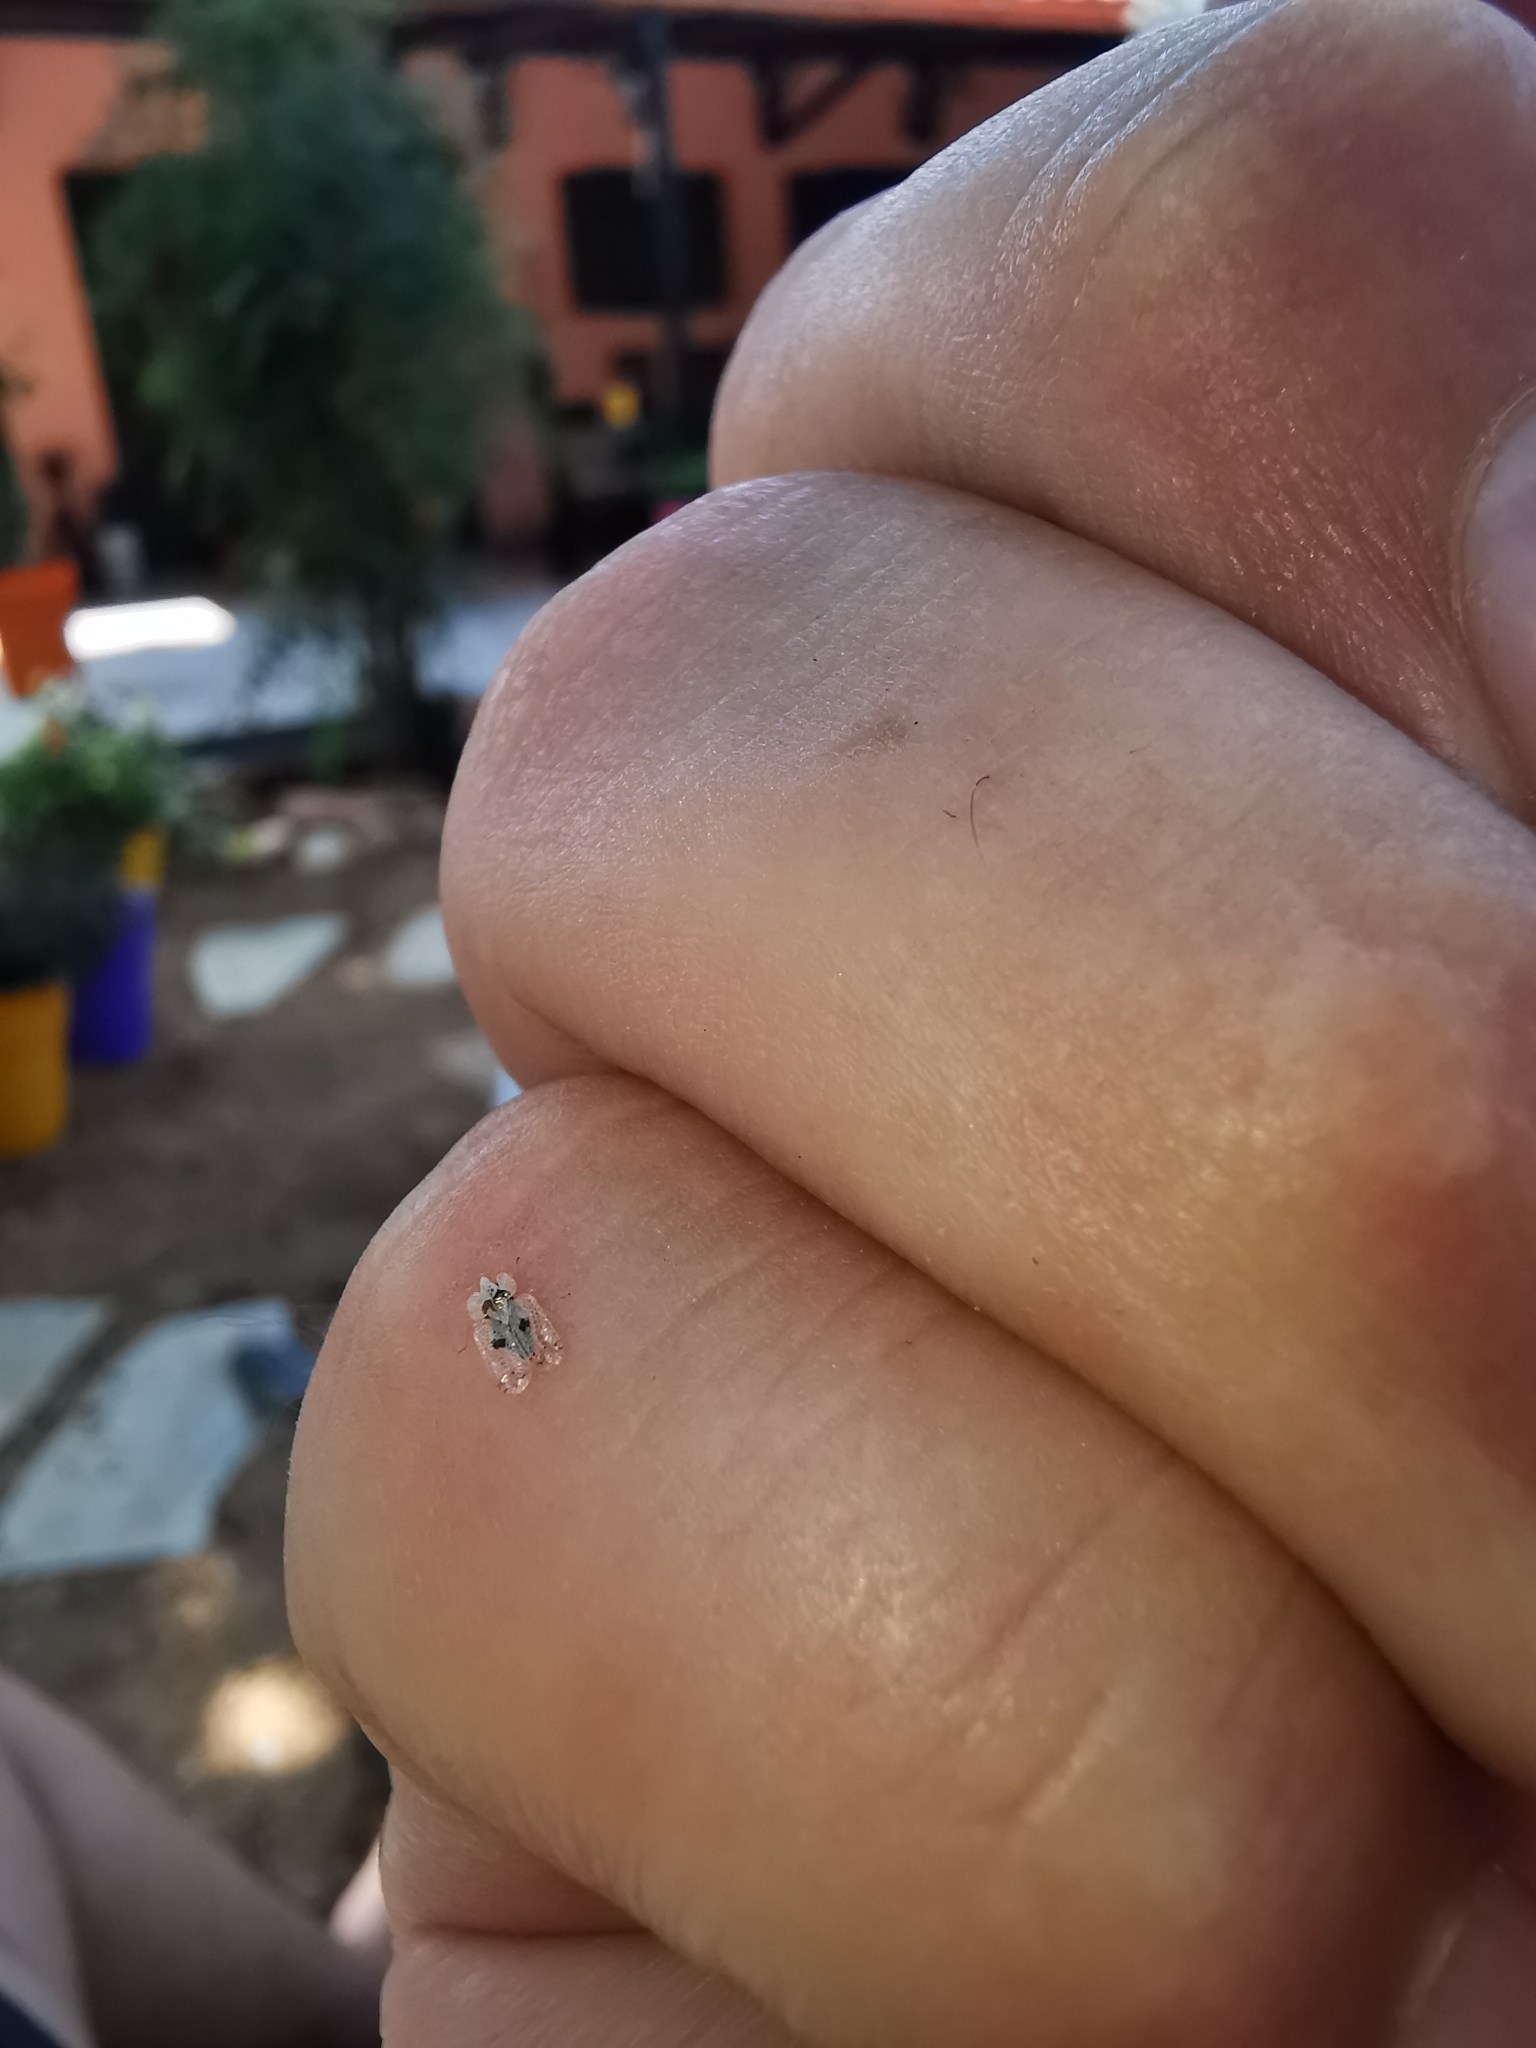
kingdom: Animalia
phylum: Arthropoda
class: Insecta
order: Hemiptera
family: Tingidae
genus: Corythucha
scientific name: Corythucha ciliata
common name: Sycamore lace bug
